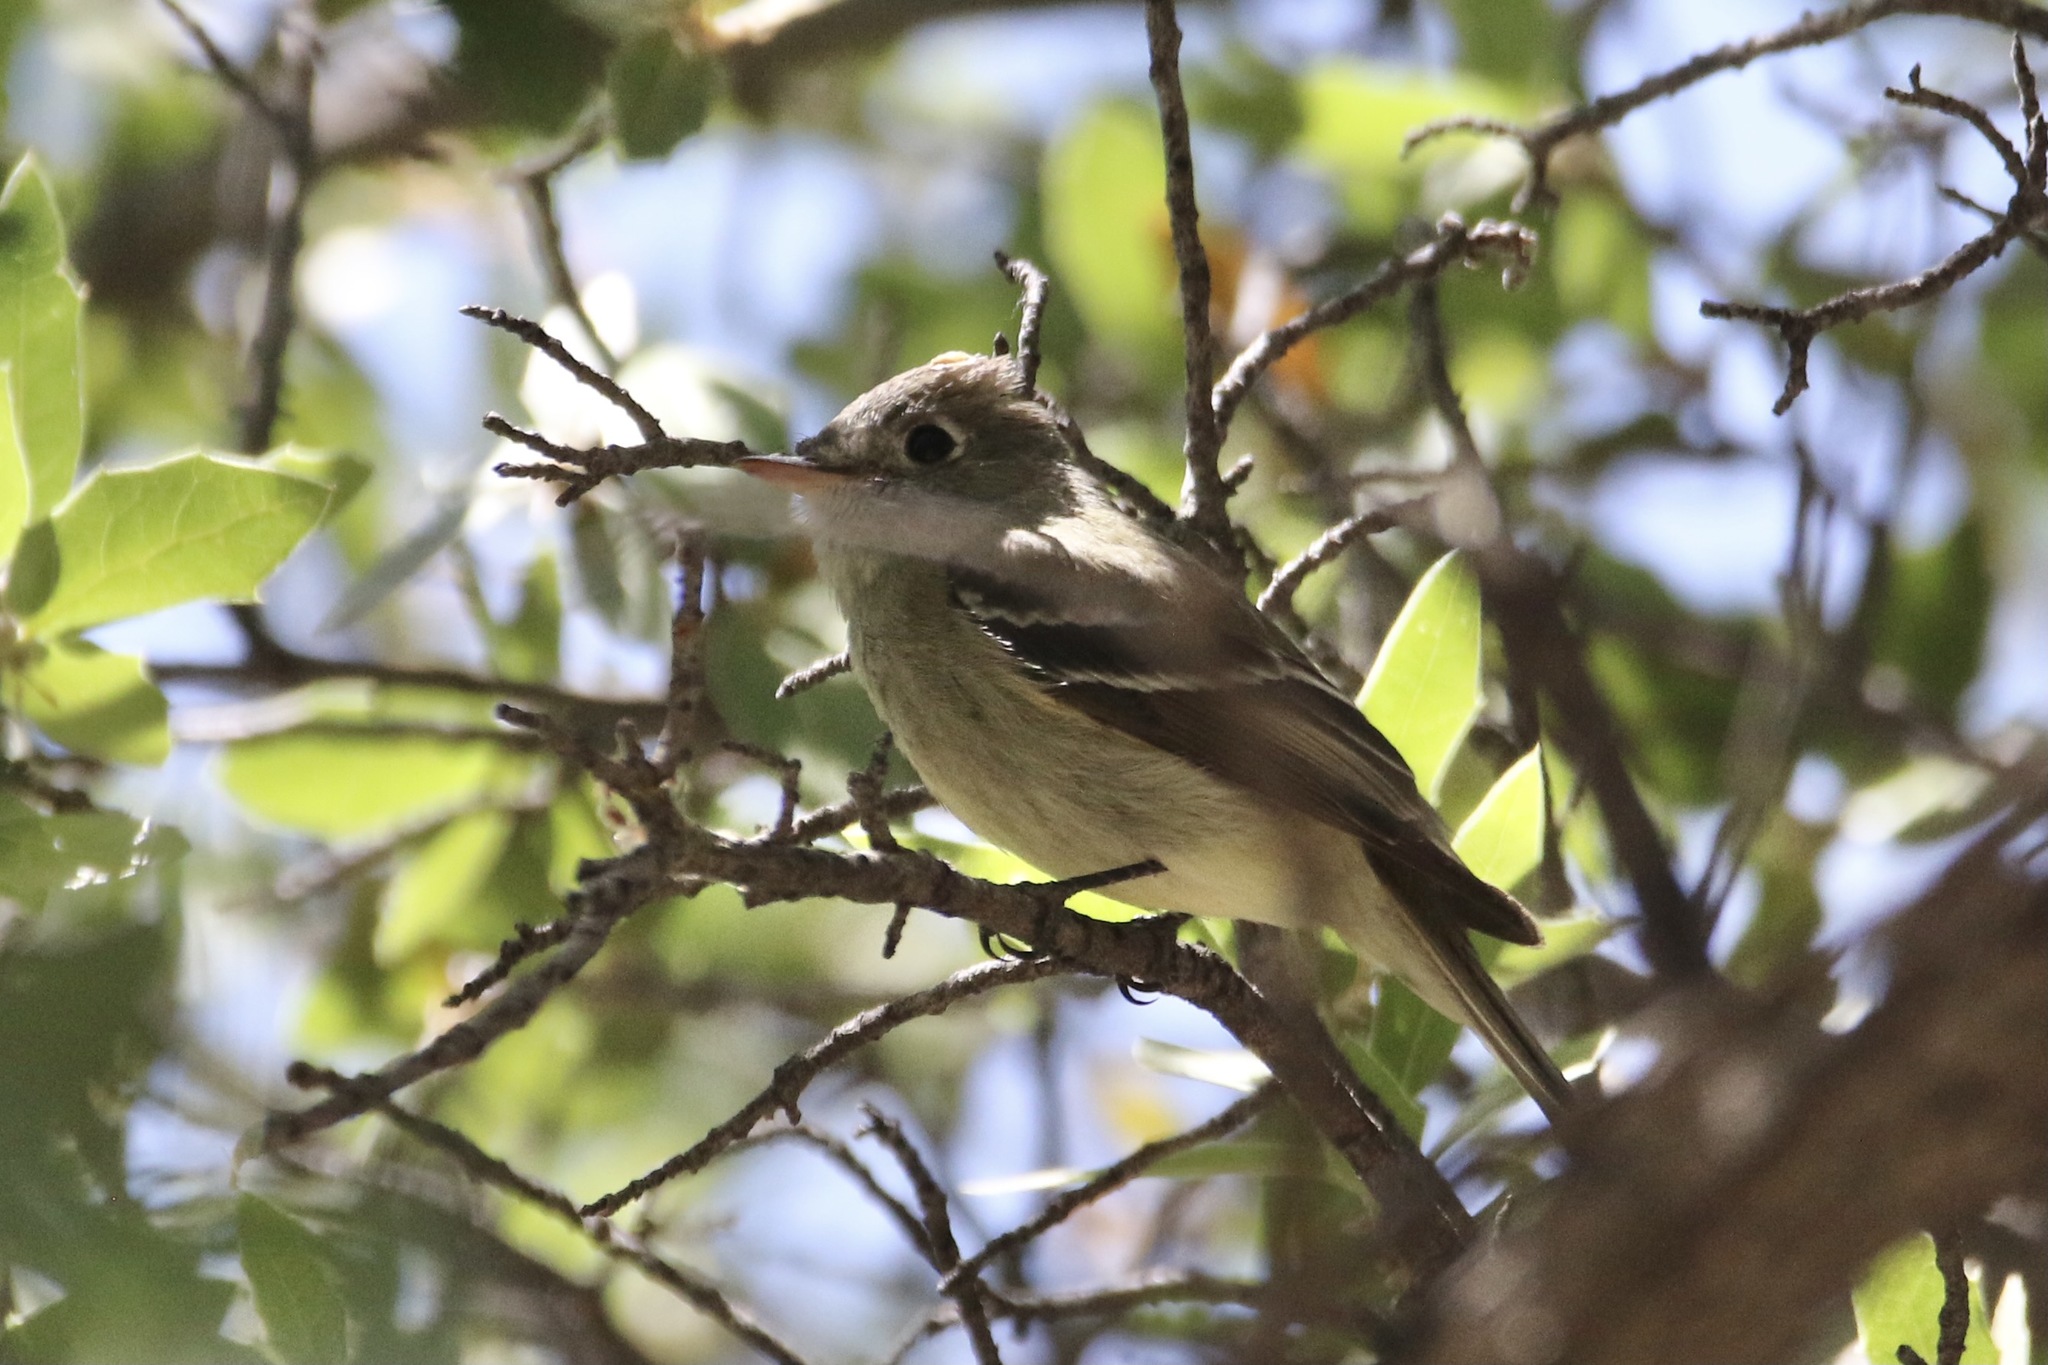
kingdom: Animalia
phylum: Chordata
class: Aves
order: Passeriformes
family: Tyrannidae
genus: Empidonax
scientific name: Empidonax hammondii
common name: Hammond's flycatcher
